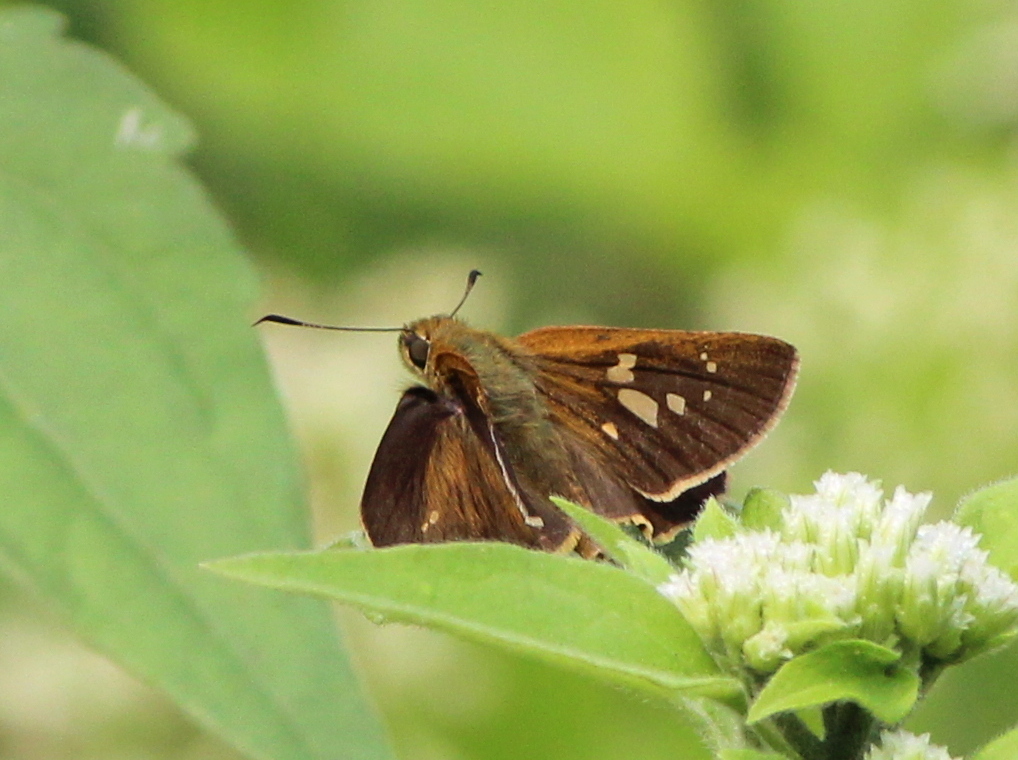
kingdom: Animalia
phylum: Arthropoda
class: Insecta
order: Lepidoptera
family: Hesperiidae
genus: Polytremis
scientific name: Polytremis lubricans
